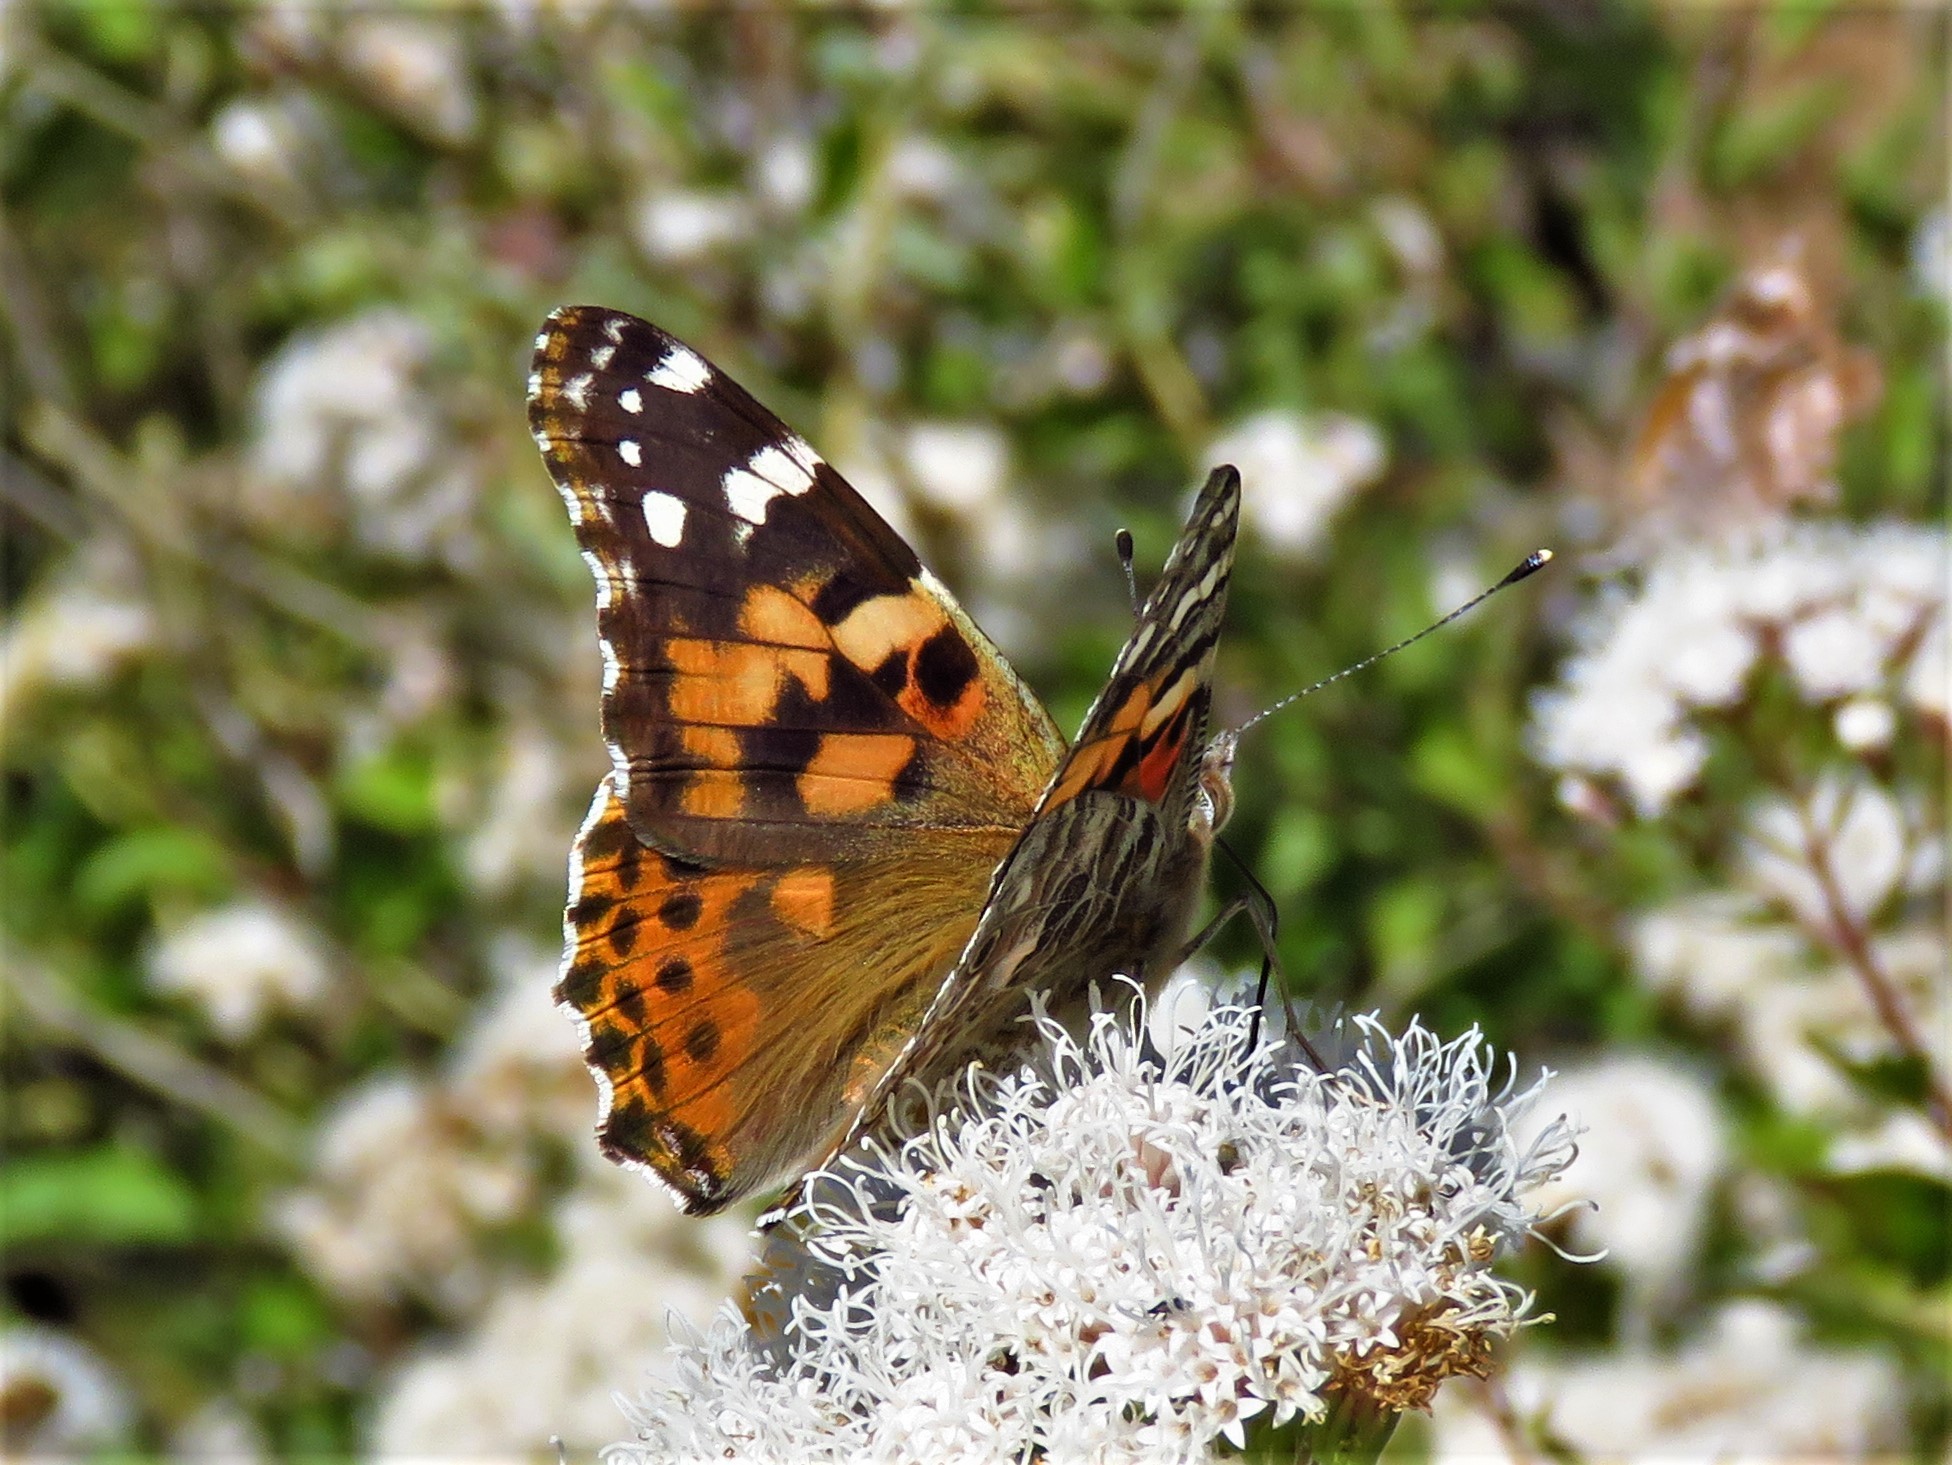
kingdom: Animalia
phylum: Arthropoda
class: Insecta
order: Lepidoptera
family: Nymphalidae
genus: Vanessa
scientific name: Vanessa cardui
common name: Painted lady
